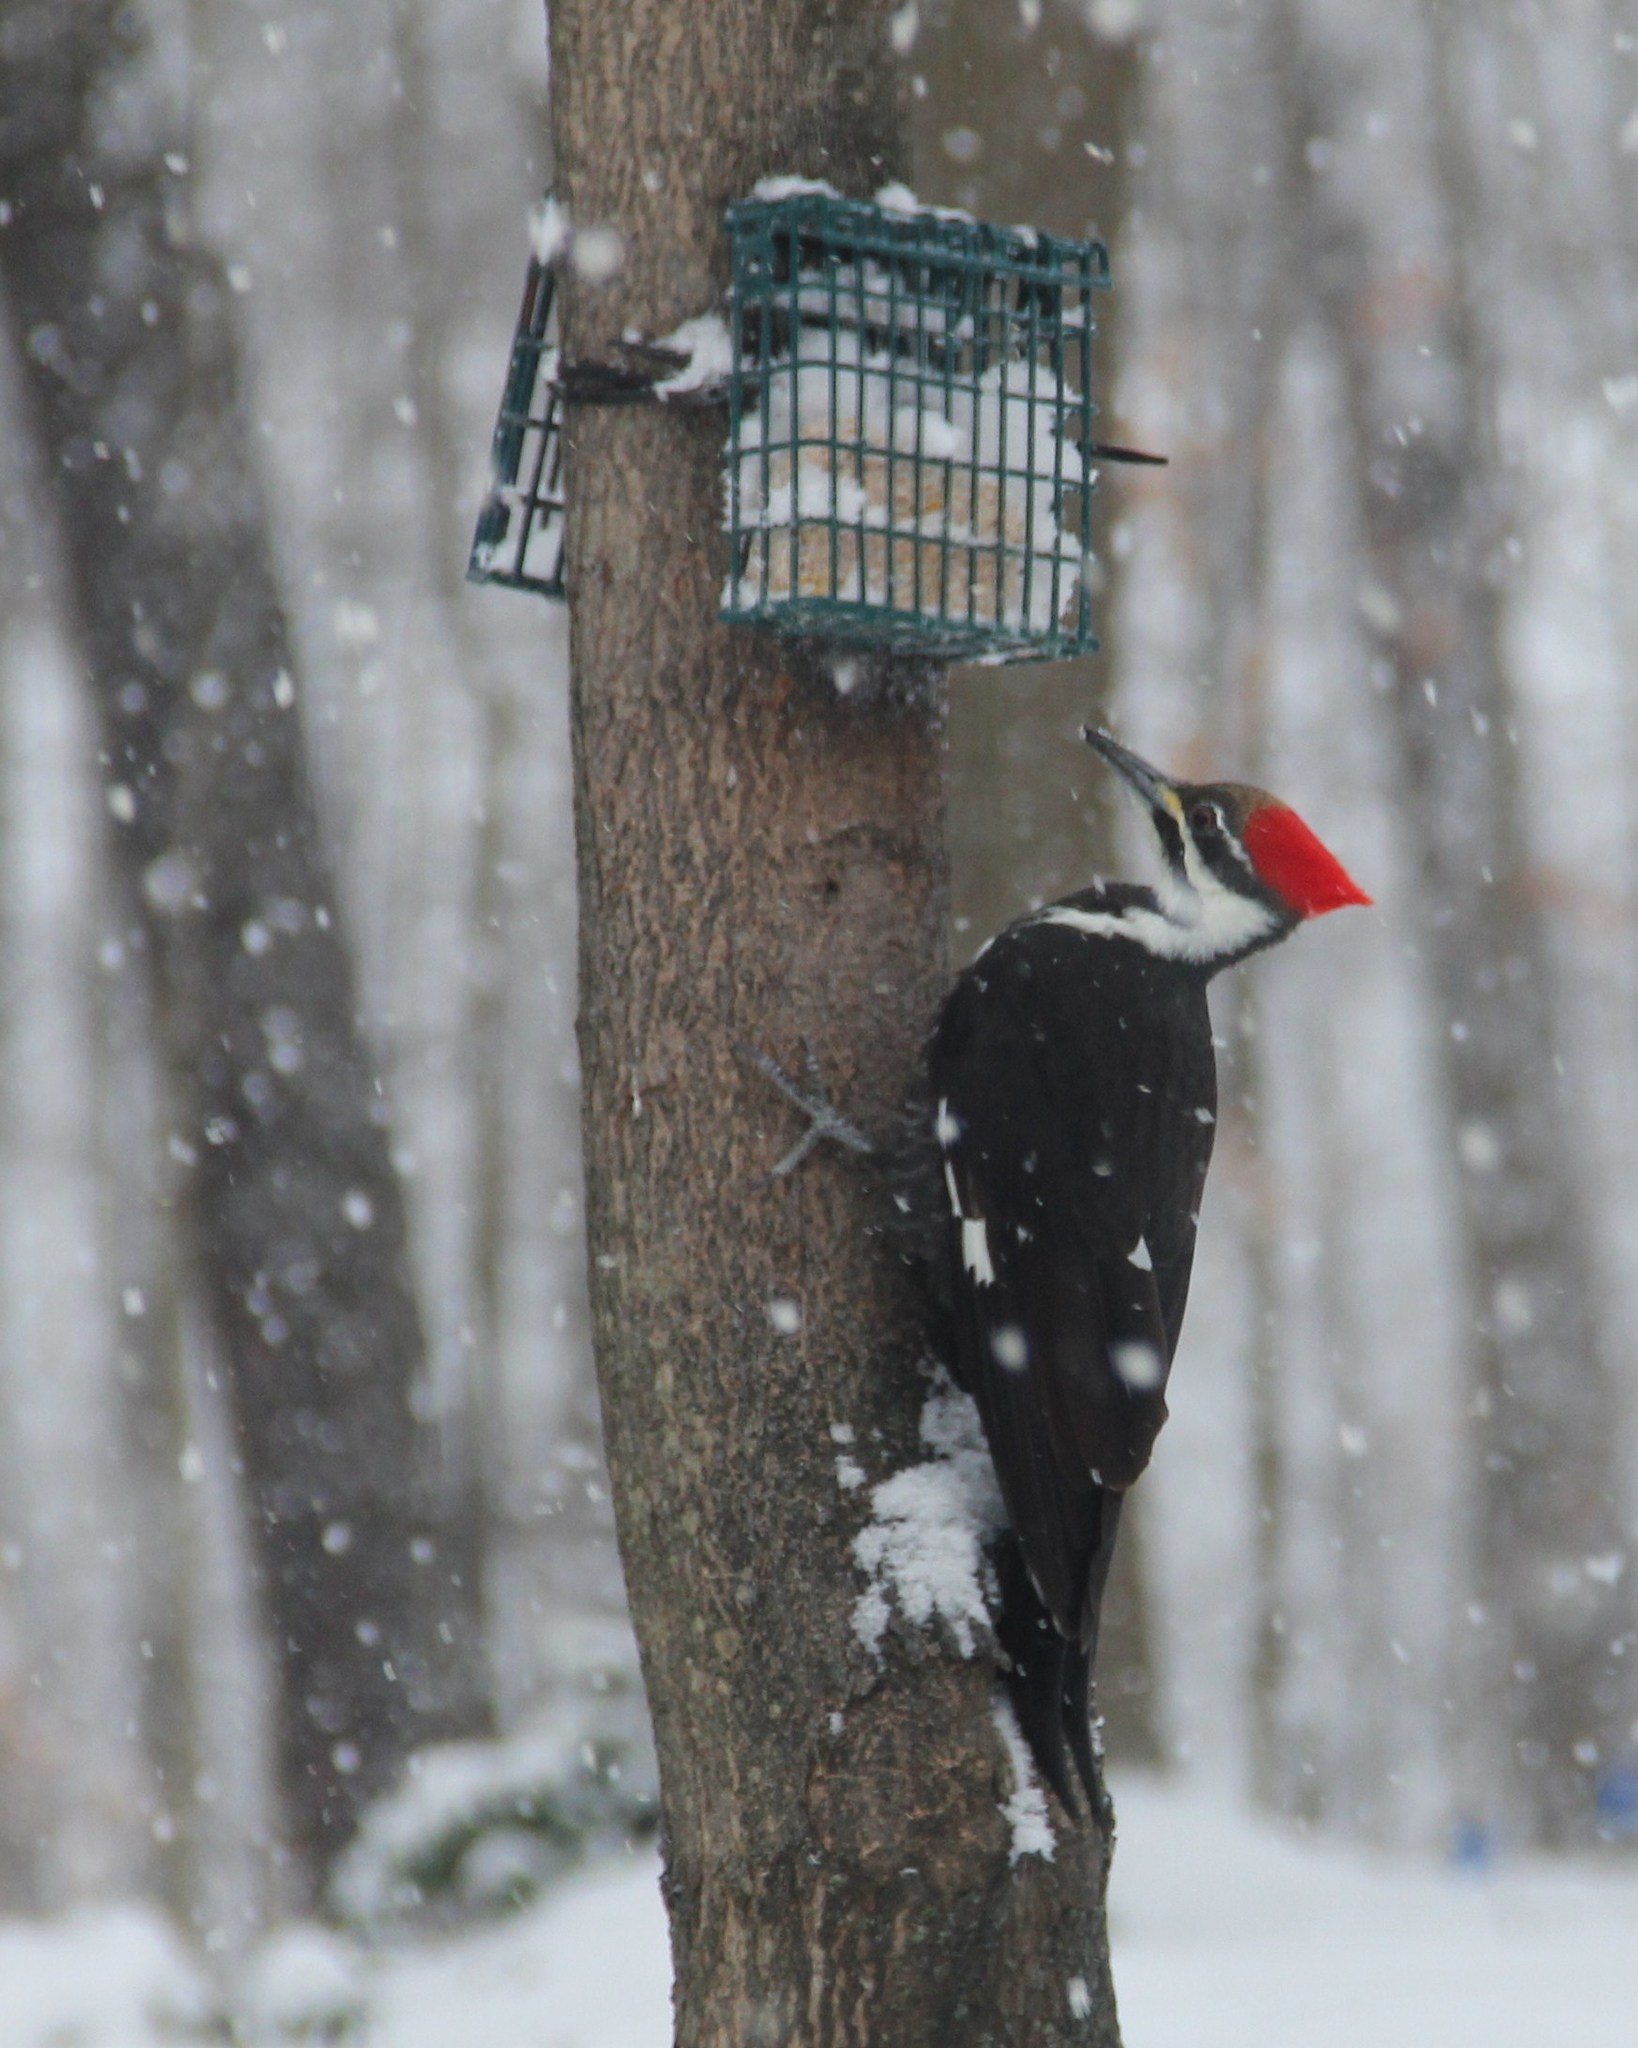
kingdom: Animalia
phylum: Chordata
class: Aves
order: Piciformes
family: Picidae
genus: Dryocopus
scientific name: Dryocopus pileatus
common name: Pileated woodpecker
